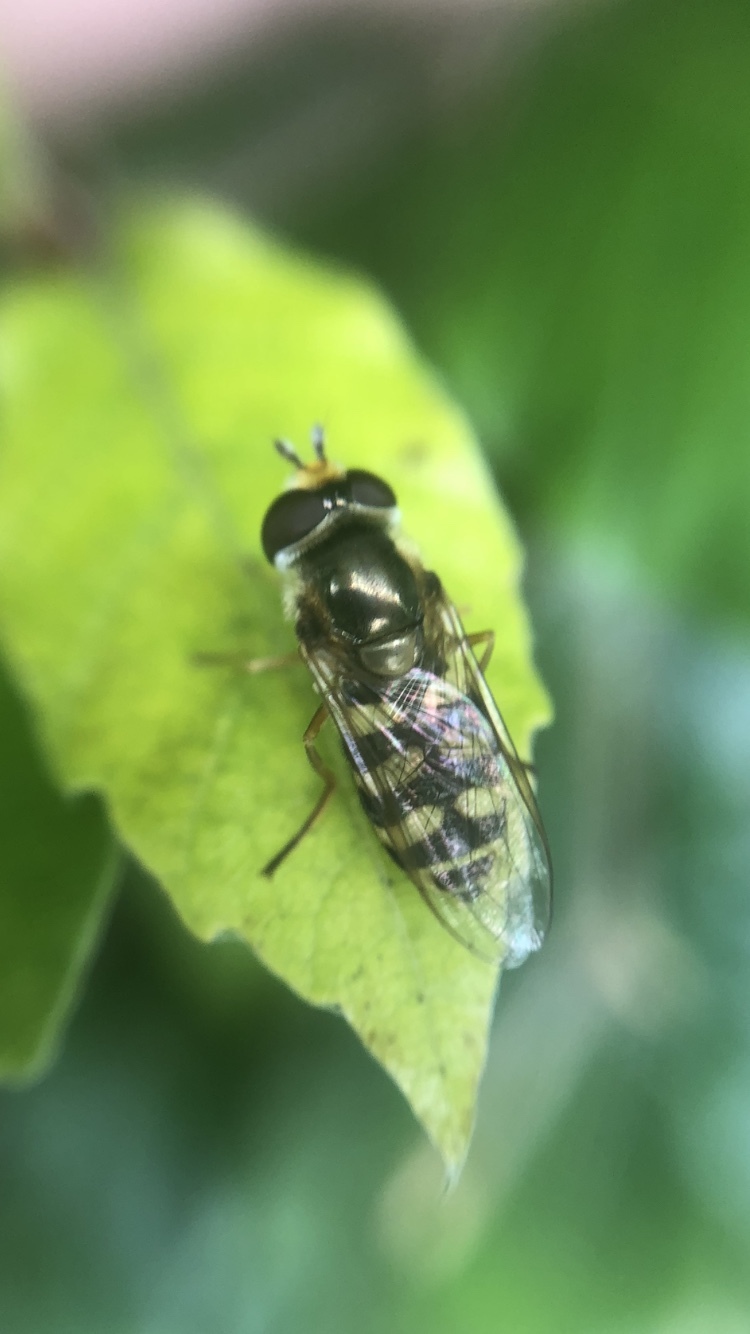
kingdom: Animalia
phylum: Arthropoda
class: Insecta
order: Diptera
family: Syrphidae
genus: Eupeodes
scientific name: Eupeodes corollae
